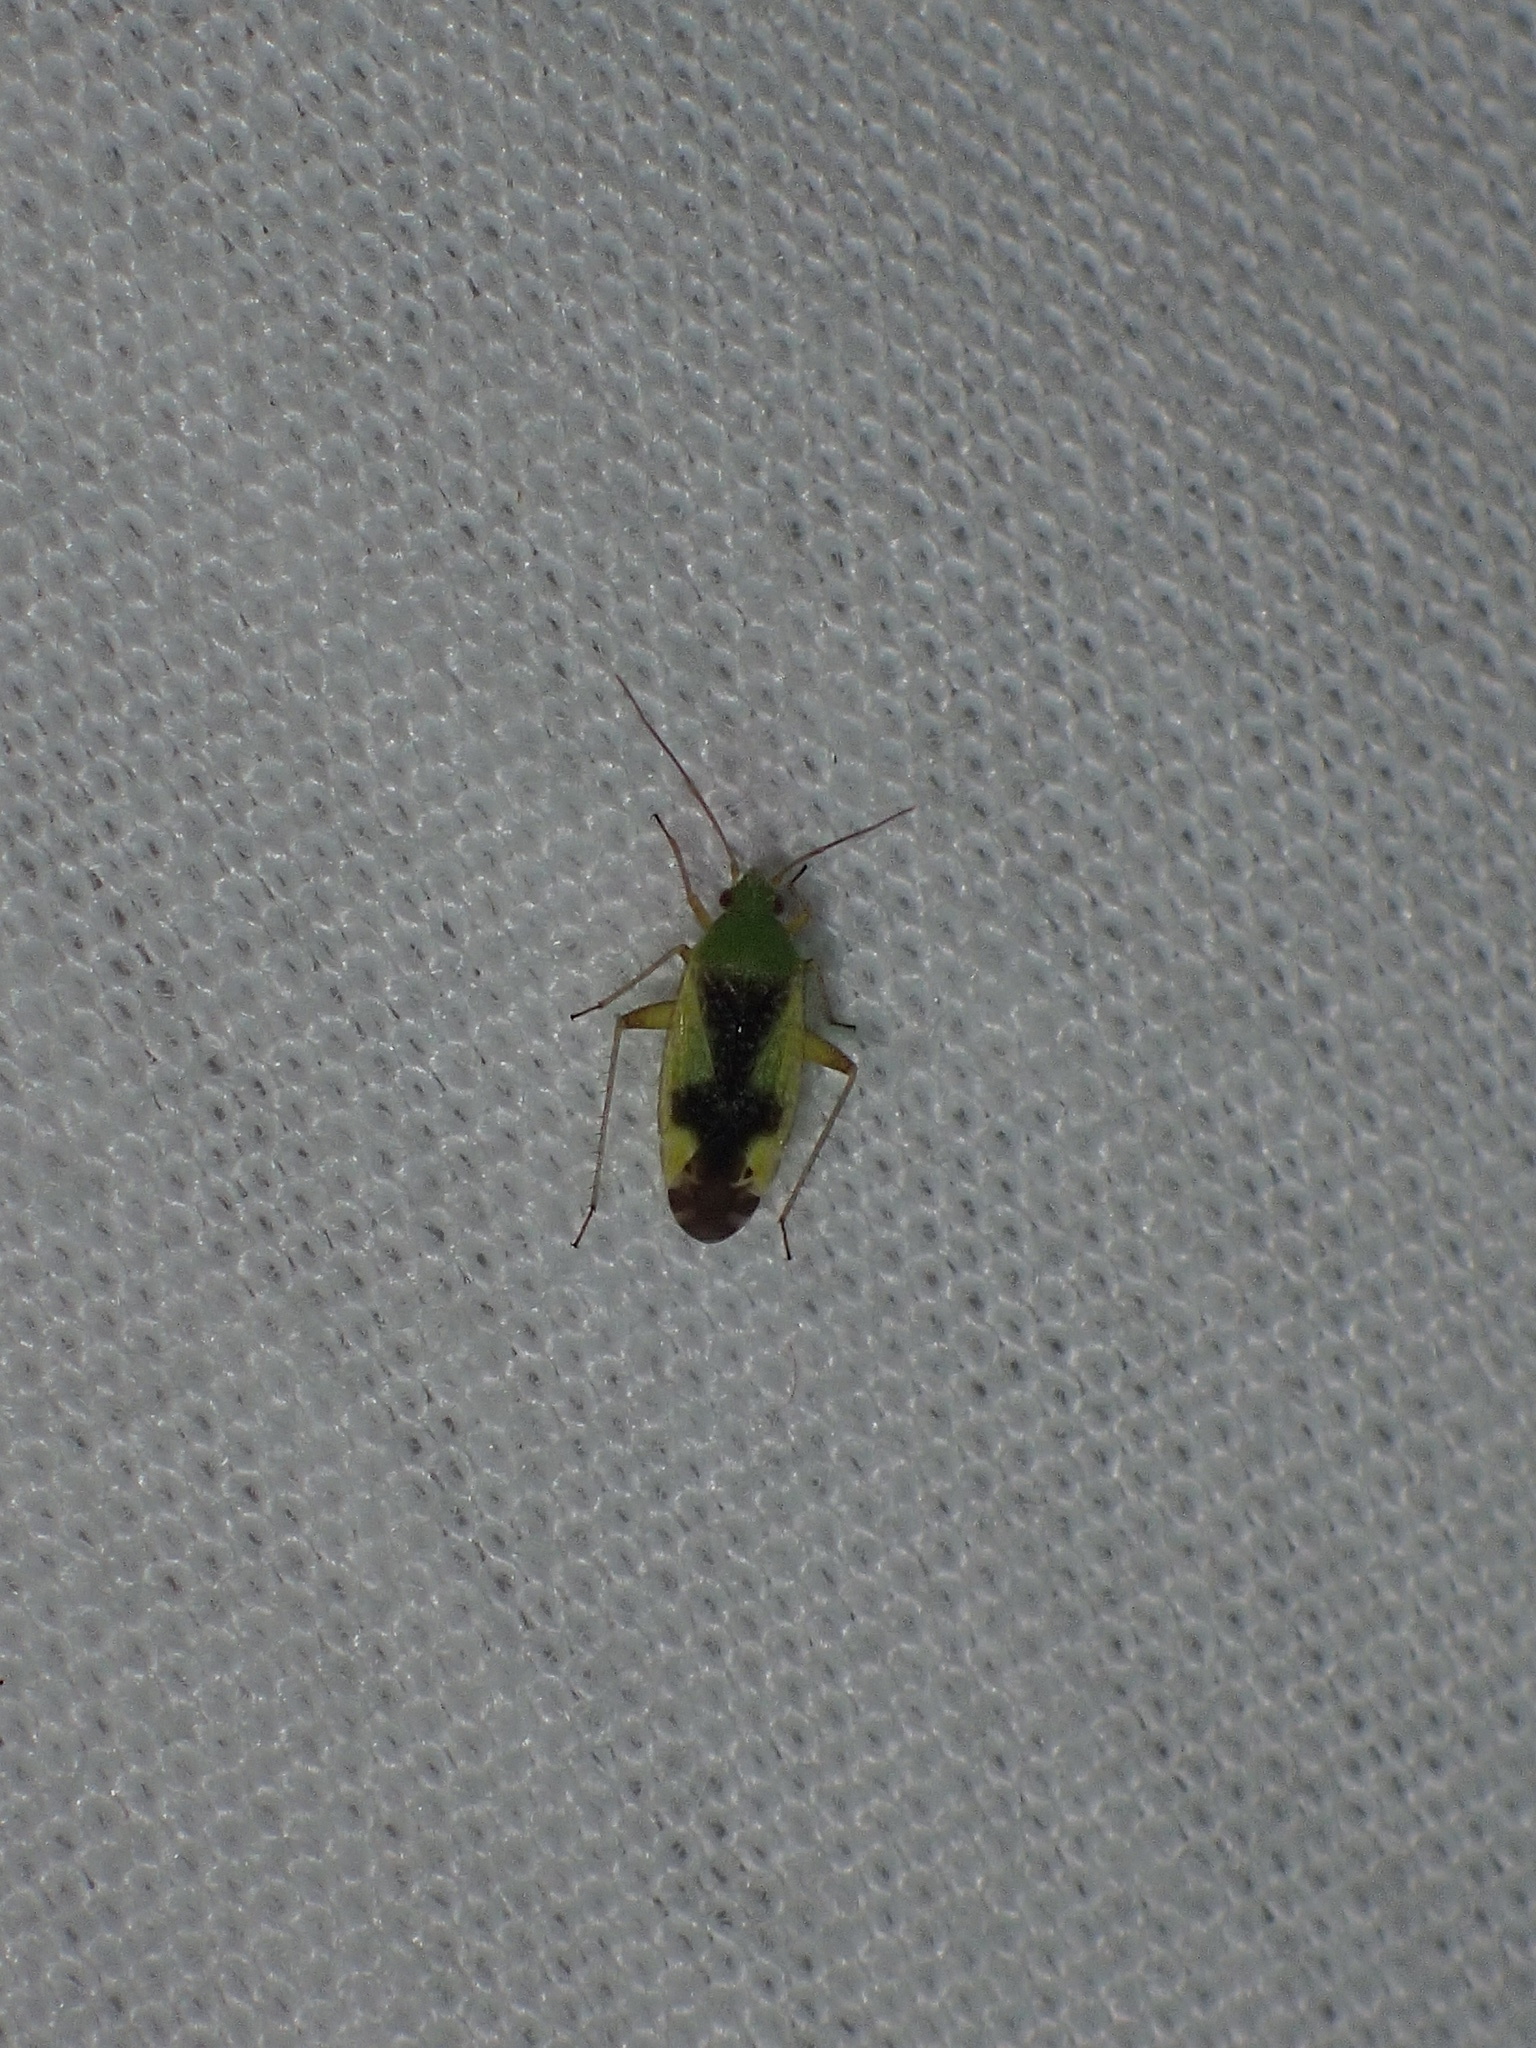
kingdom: Animalia
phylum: Arthropoda
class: Insecta
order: Hemiptera
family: Miridae
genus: Reuteroscopus
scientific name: Reuteroscopus ornatus
